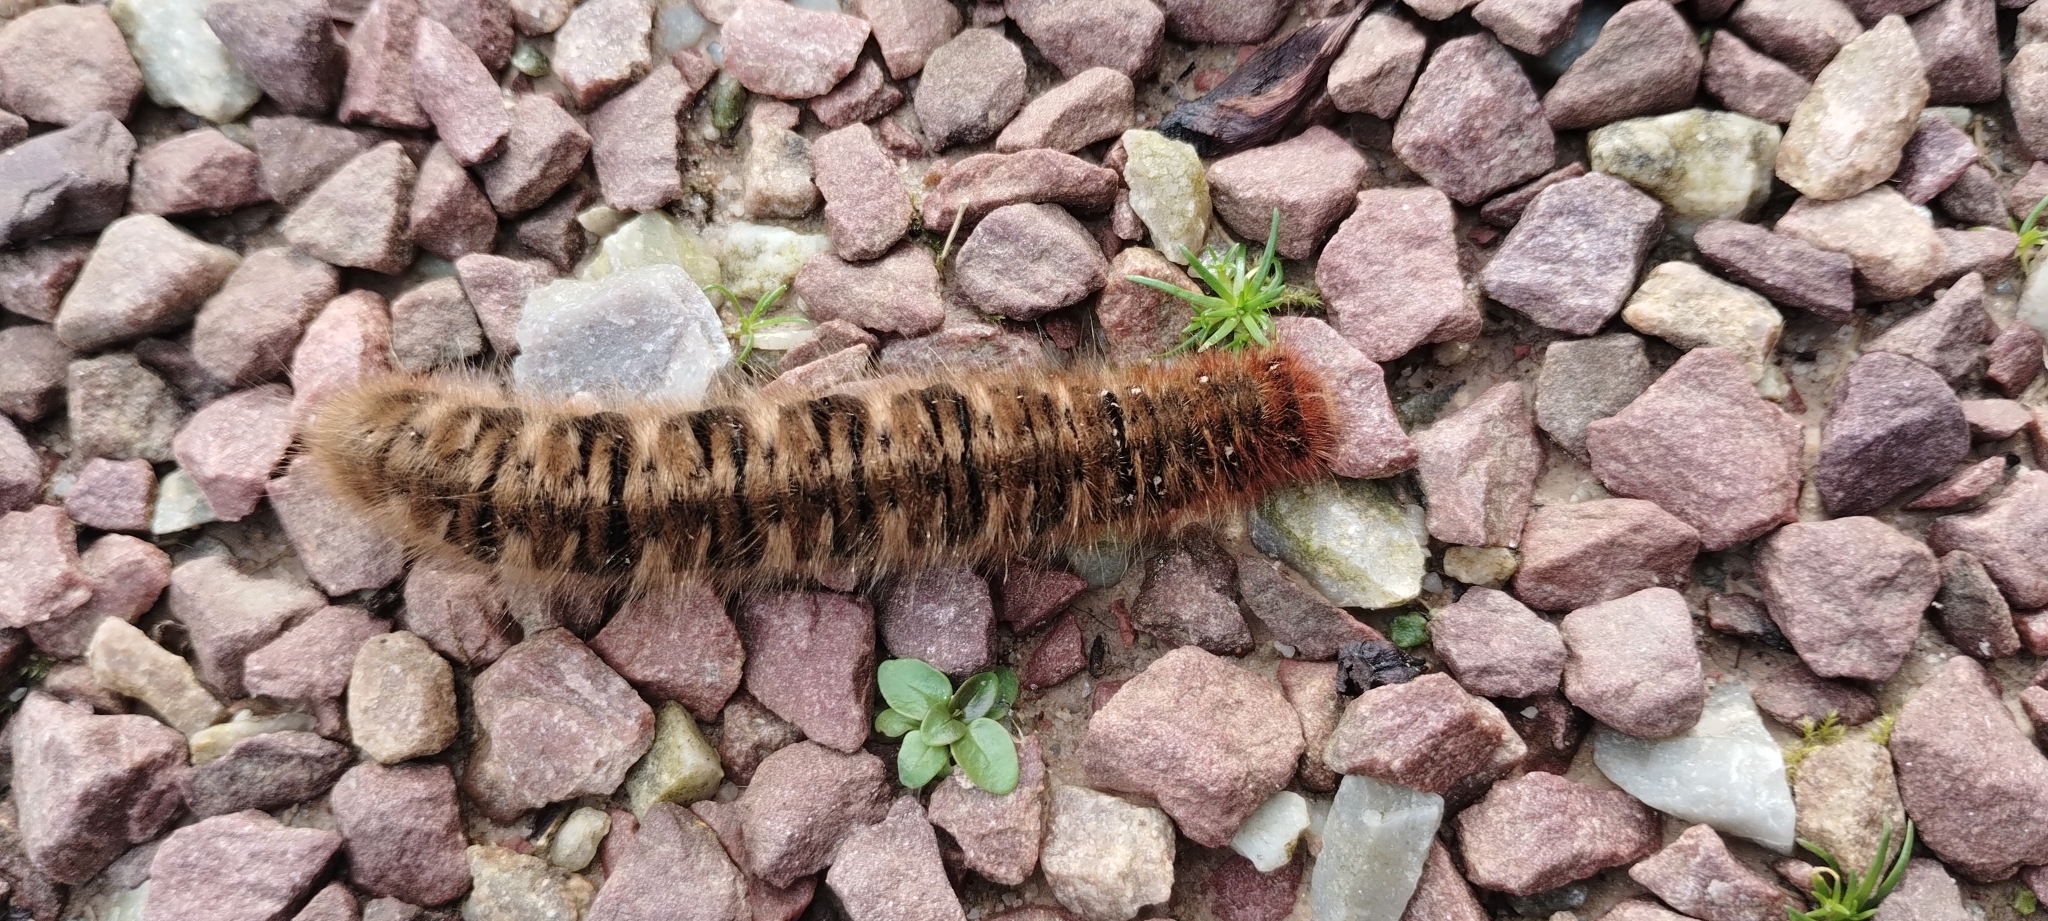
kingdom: Animalia
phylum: Arthropoda
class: Insecta
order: Lepidoptera
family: Lasiocampidae
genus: Lasiocampa
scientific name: Lasiocampa quercus
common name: Oak eggar
